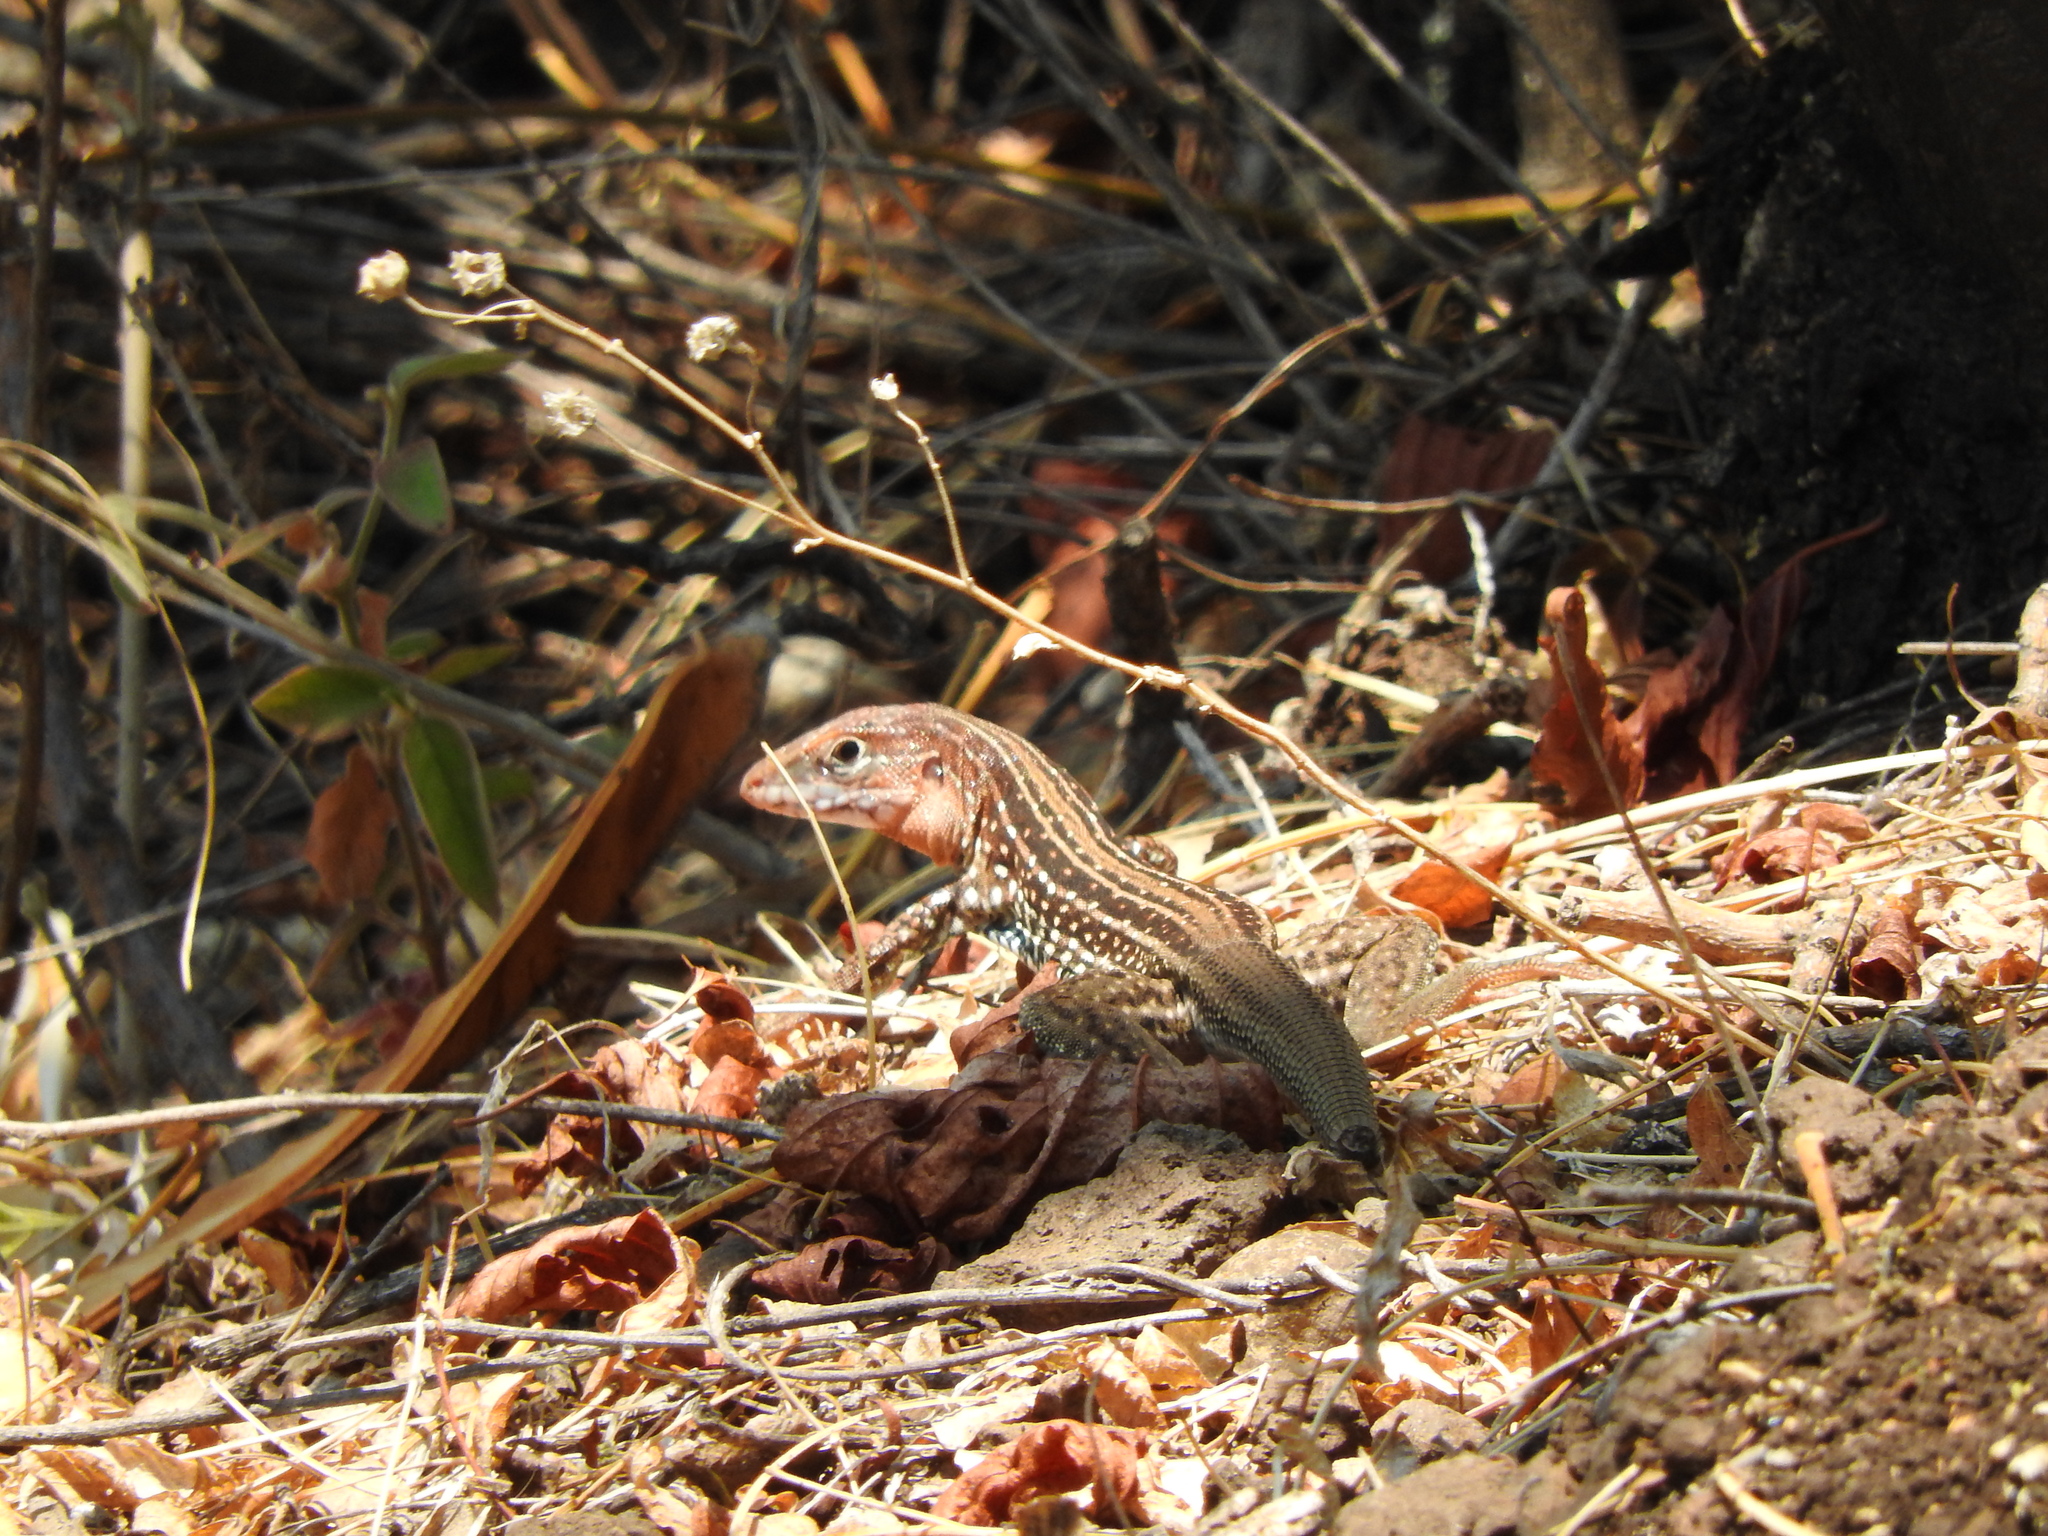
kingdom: Animalia
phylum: Chordata
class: Squamata
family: Teiidae
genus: Aspidoscelis
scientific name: Aspidoscelis gularis
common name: Eastern spotted whiptail
